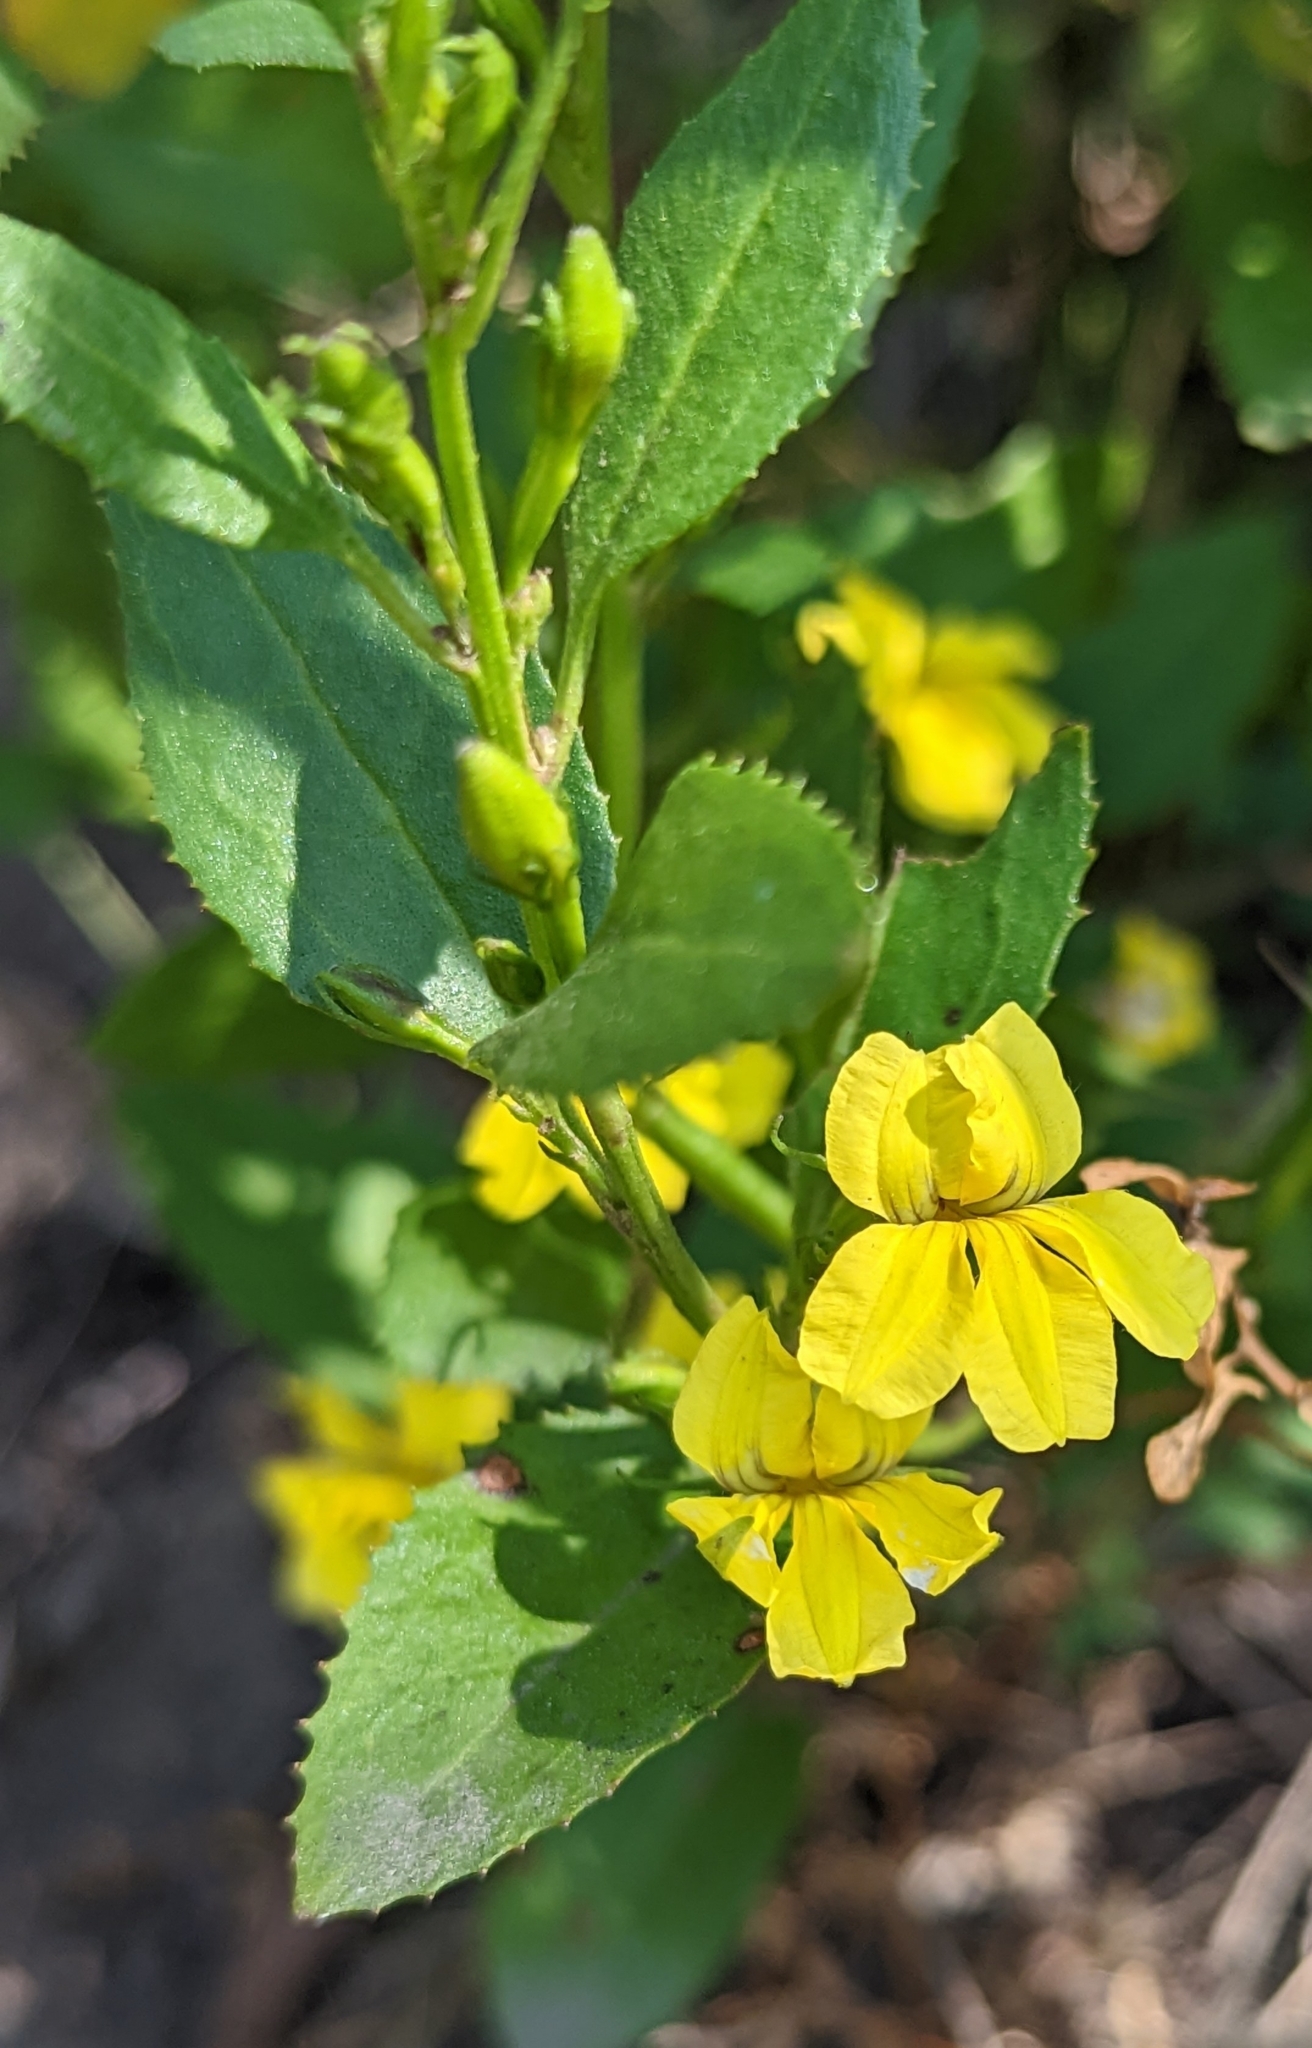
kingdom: Plantae
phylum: Tracheophyta
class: Magnoliopsida
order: Asterales
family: Goodeniaceae
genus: Goodenia
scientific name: Goodenia ovata
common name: Hop goodenia
